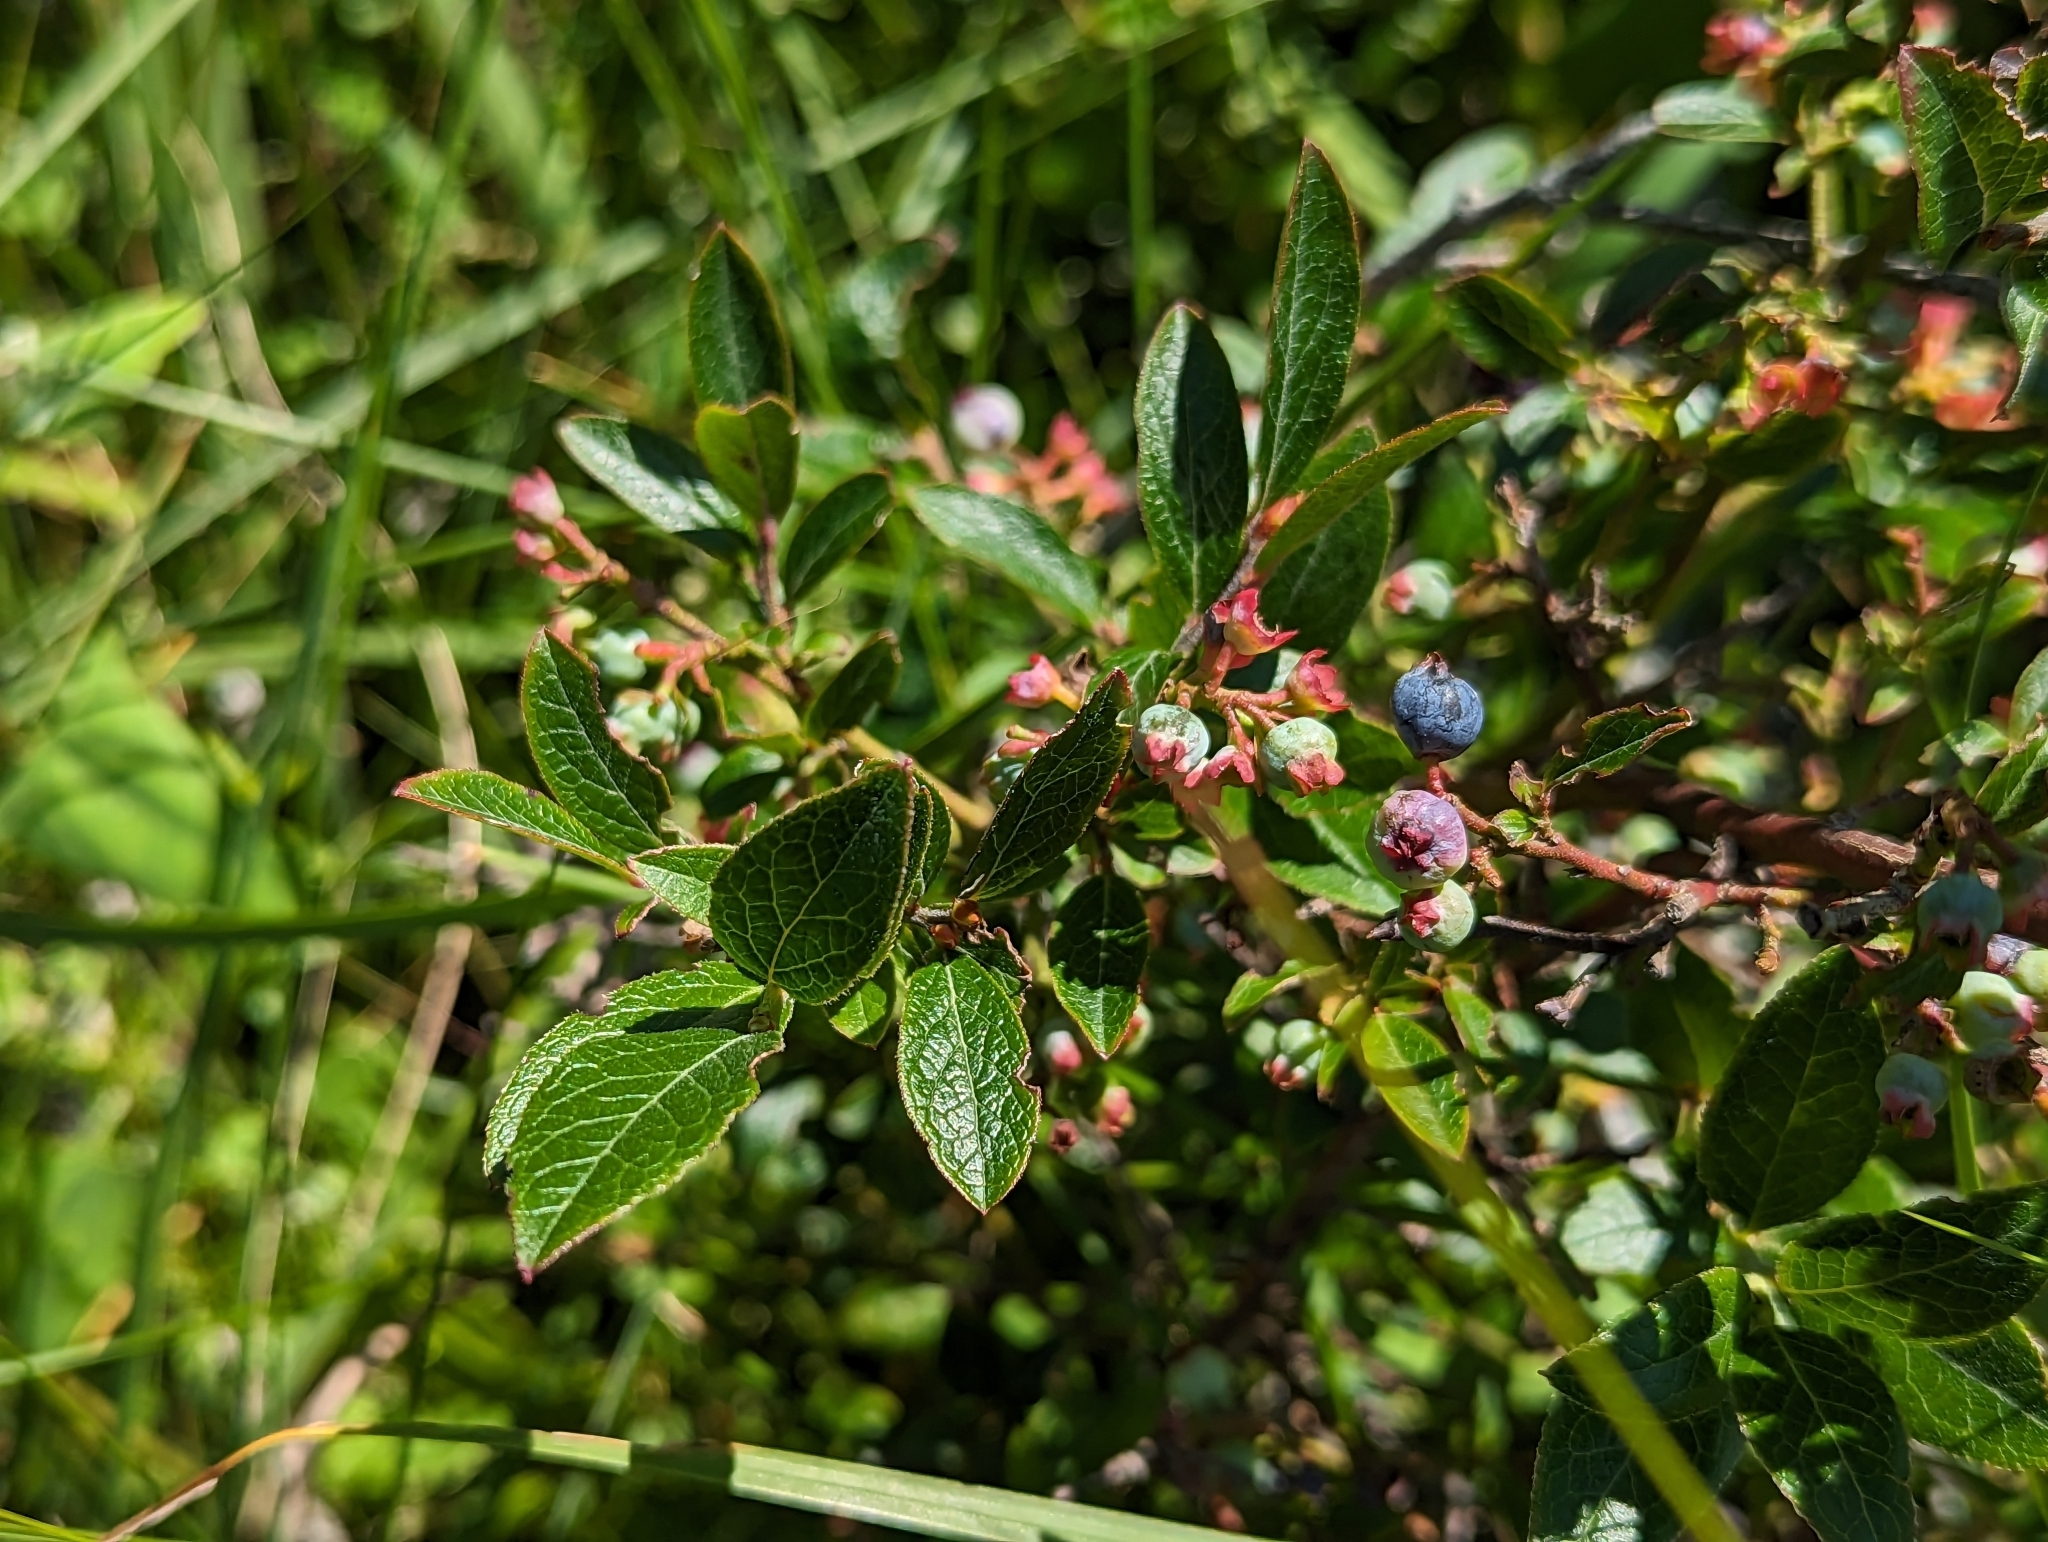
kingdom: Plantae
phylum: Tracheophyta
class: Magnoliopsida
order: Ericales
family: Ericaceae
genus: Vaccinium
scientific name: Vaccinium corymbosum
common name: Blueberry
